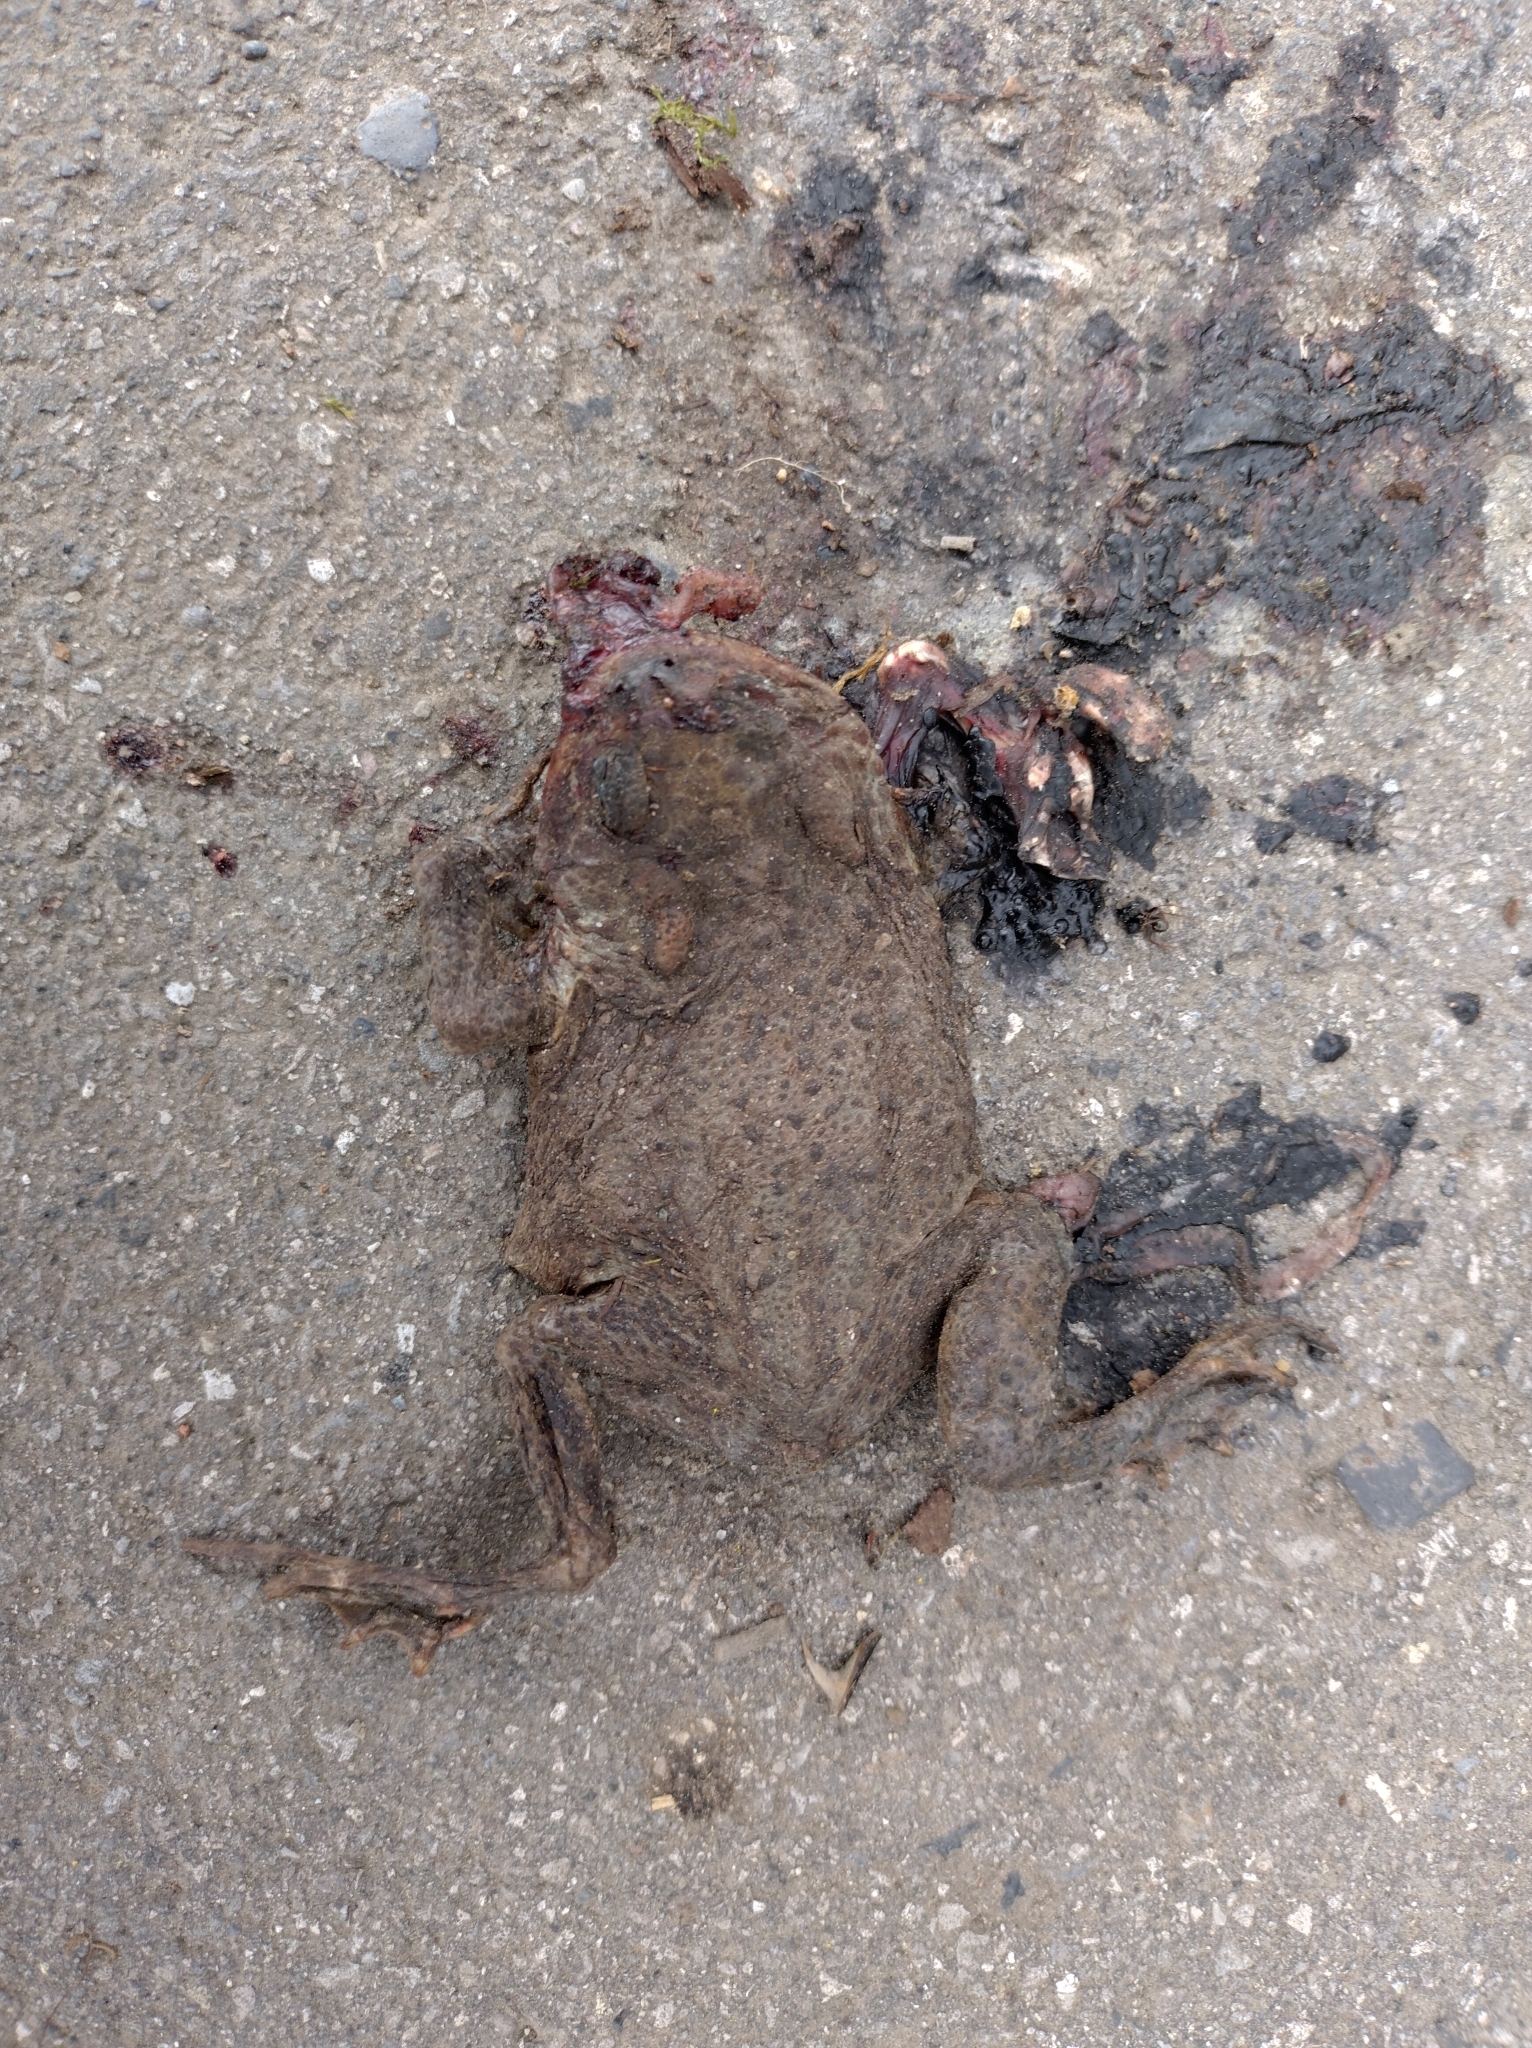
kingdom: Animalia
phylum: Chordata
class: Amphibia
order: Anura
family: Bufonidae
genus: Bufo
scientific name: Bufo bufo
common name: Common toad
